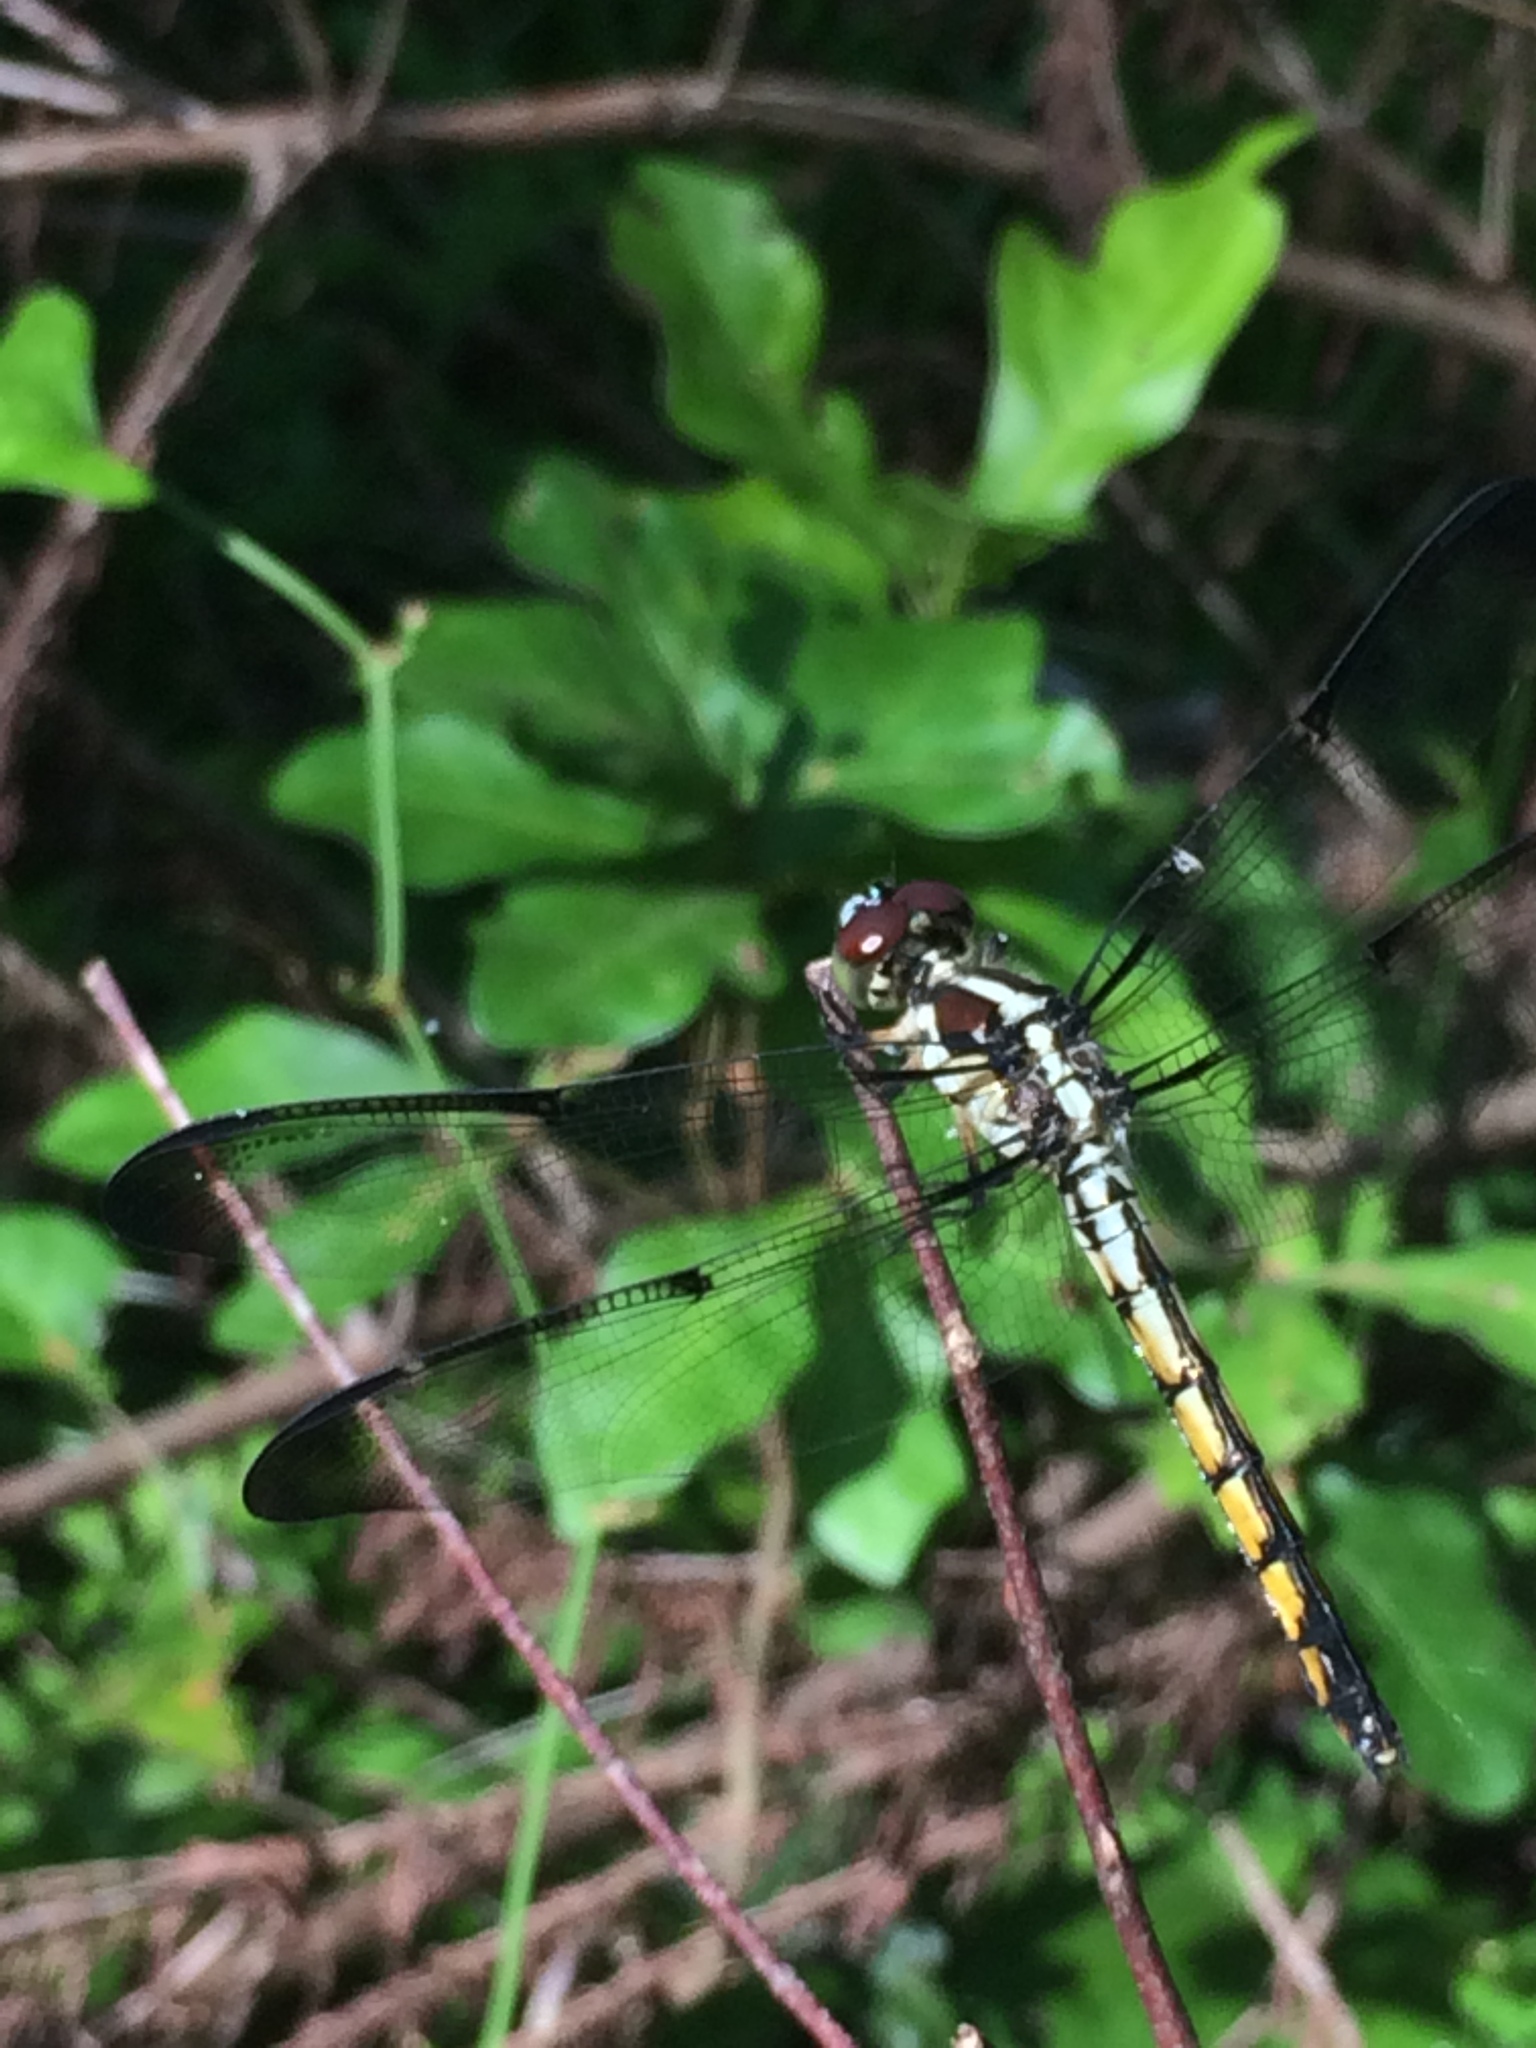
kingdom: Animalia
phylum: Arthropoda
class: Insecta
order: Odonata
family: Libellulidae
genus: Libellula
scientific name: Libellula vibrans
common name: Great blue skimmer
